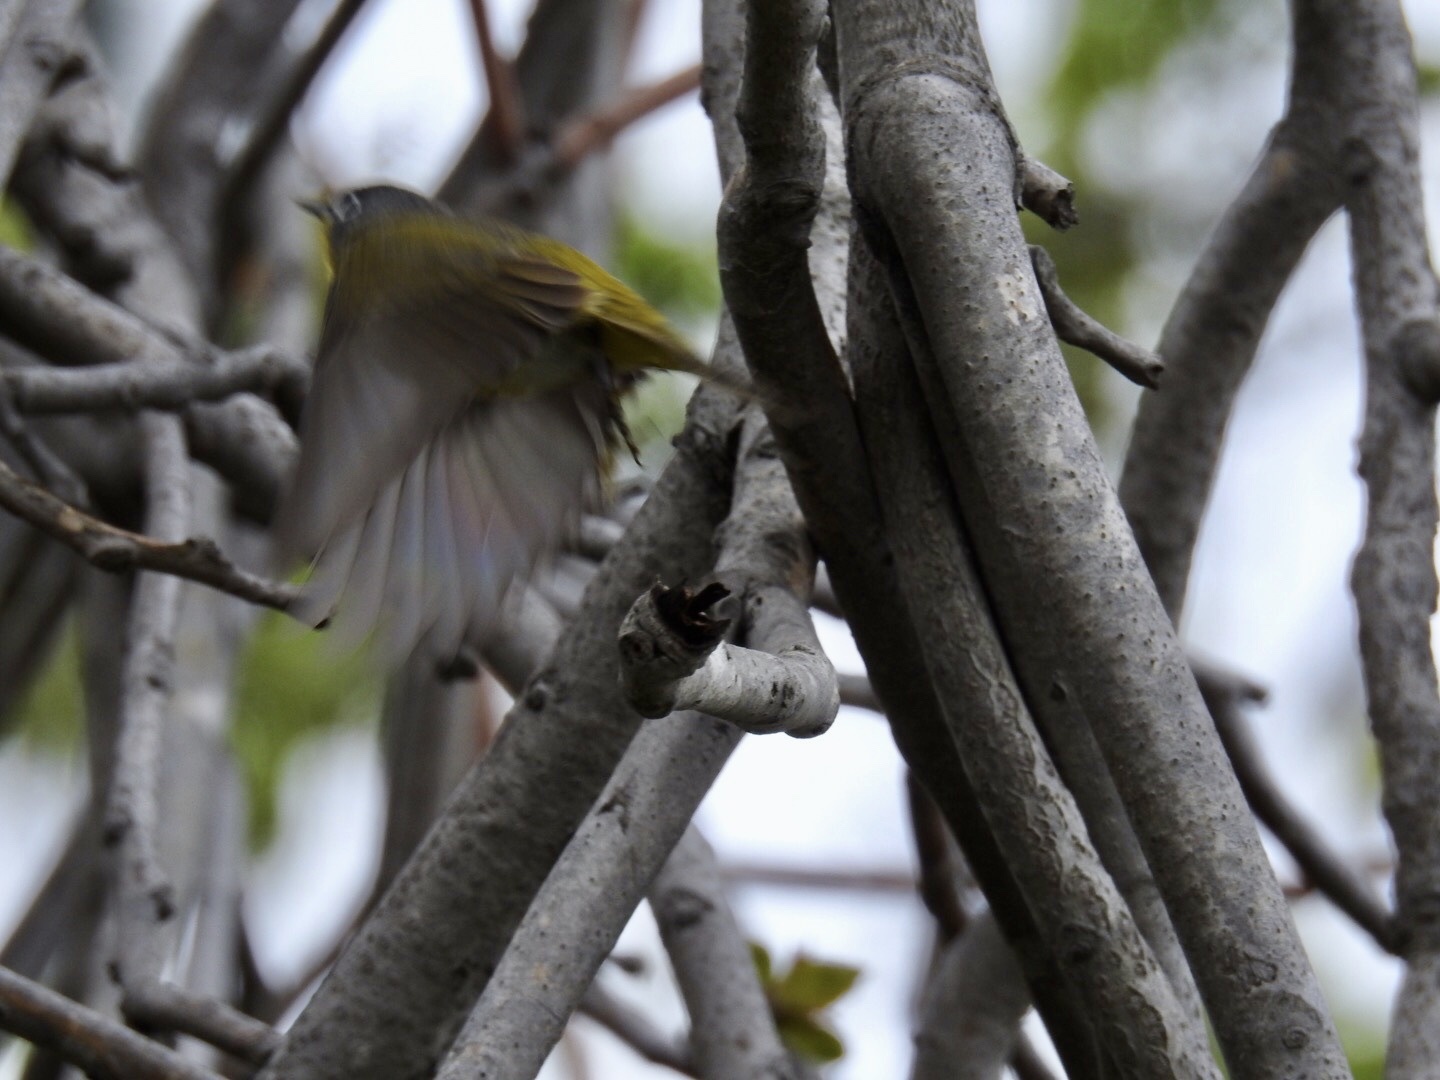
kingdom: Animalia
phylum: Chordata
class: Aves
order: Passeriformes
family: Parulidae
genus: Leiothlypis
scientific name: Leiothlypis ruficapilla
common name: Nashville warbler
